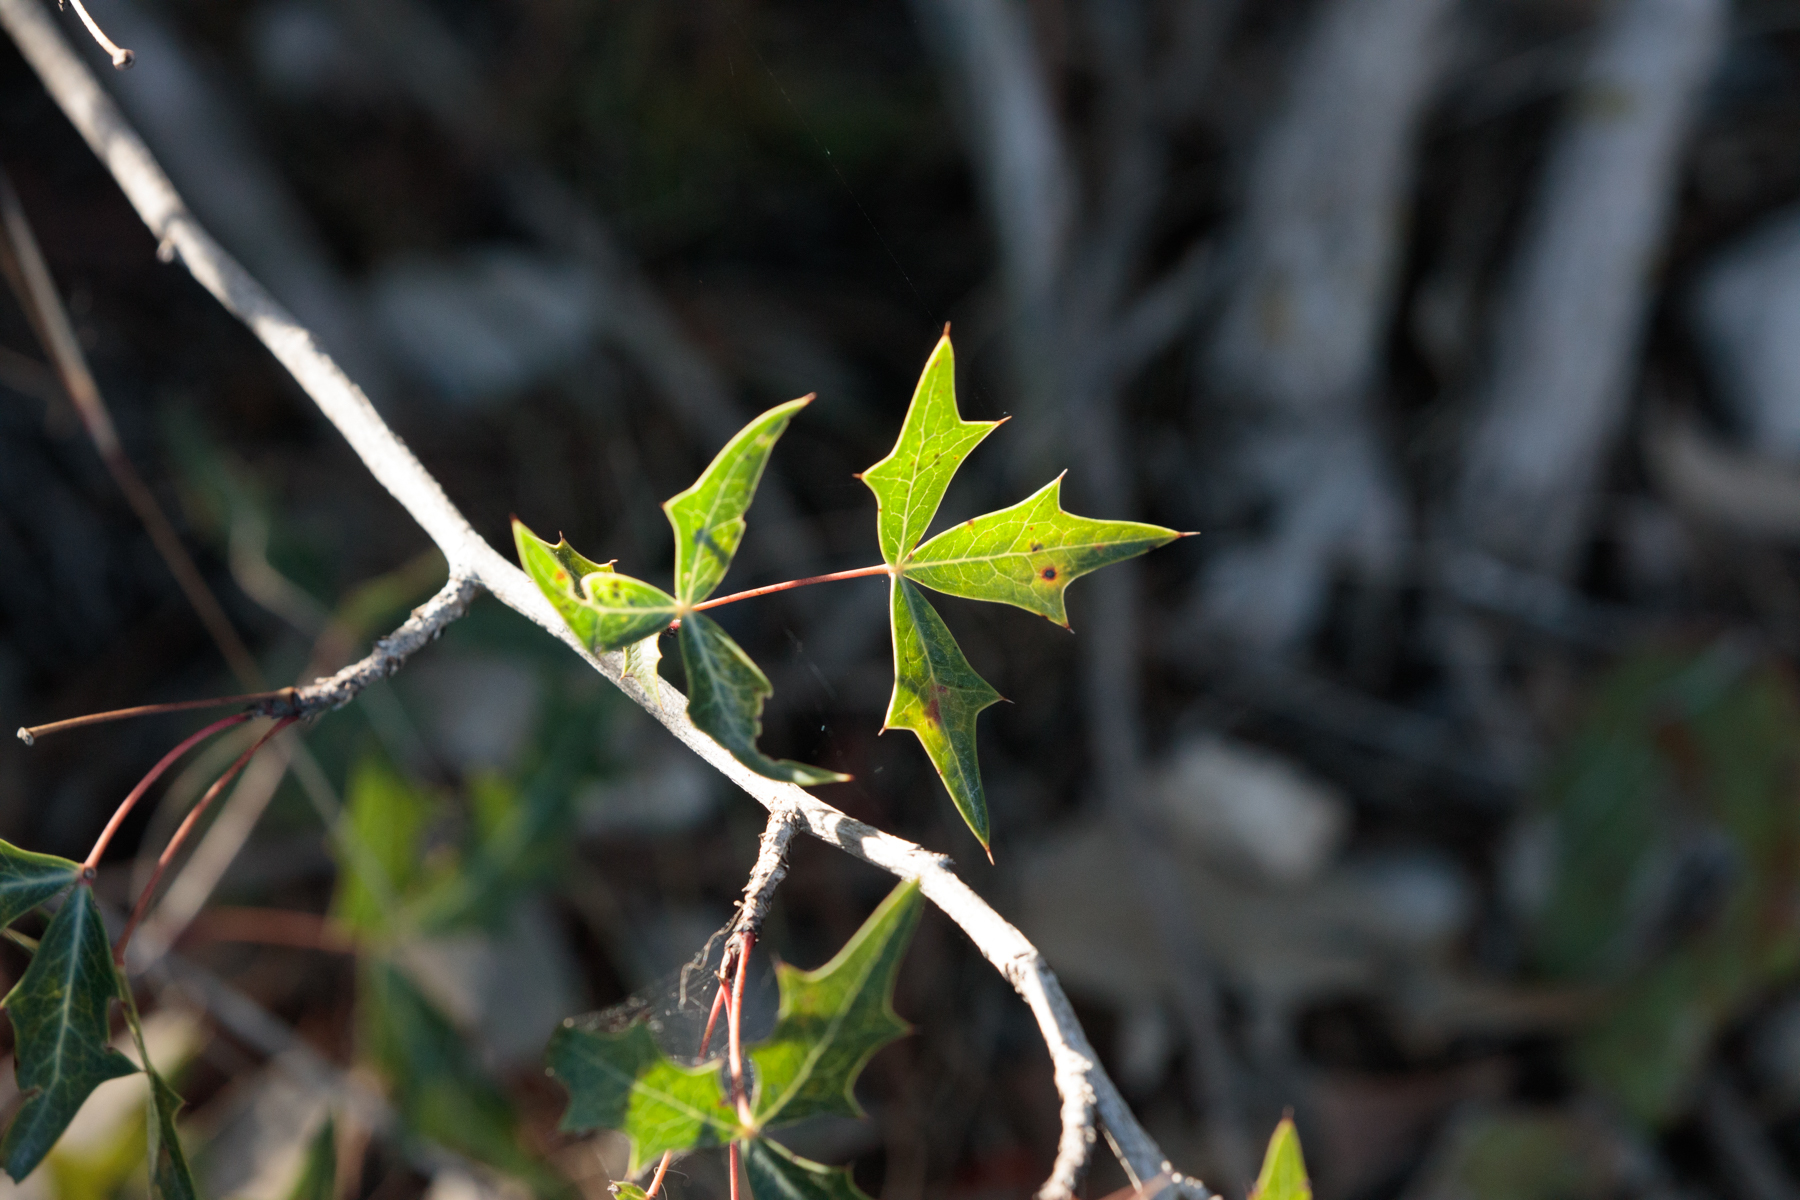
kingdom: Plantae
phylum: Tracheophyta
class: Magnoliopsida
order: Ranunculales
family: Berberidaceae
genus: Alloberberis
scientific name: Alloberberis trifoliolata
